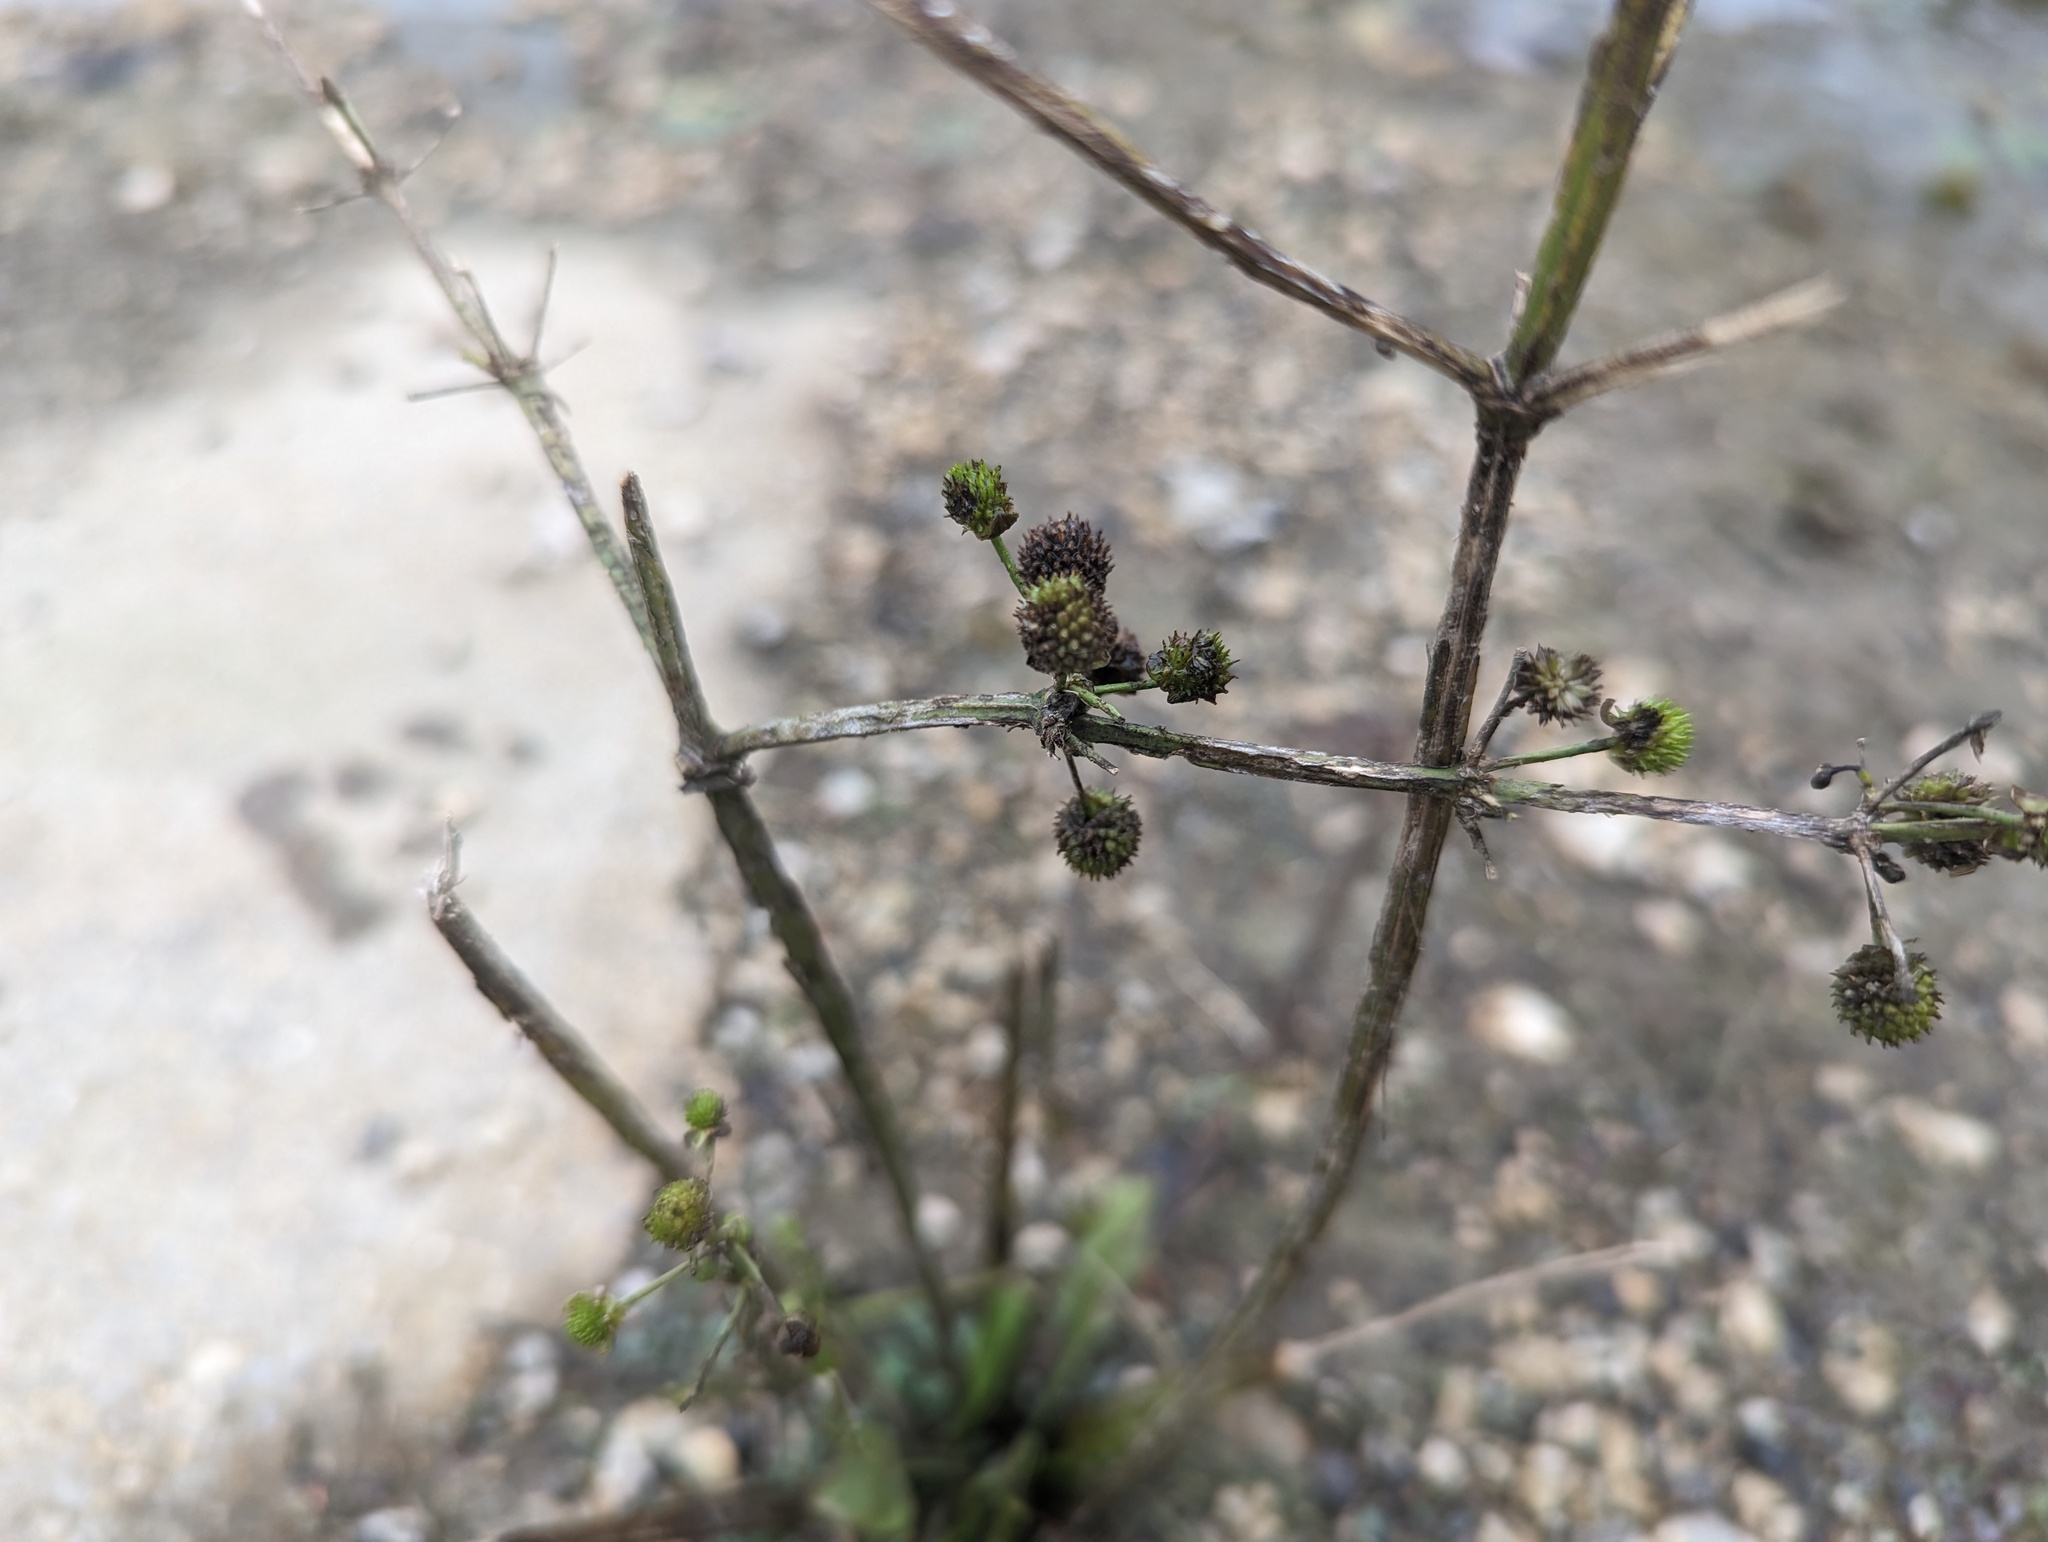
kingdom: Plantae
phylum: Tracheophyta
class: Liliopsida
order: Alismatales
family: Alismataceae
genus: Echinodorus
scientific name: Echinodorus berteroi
